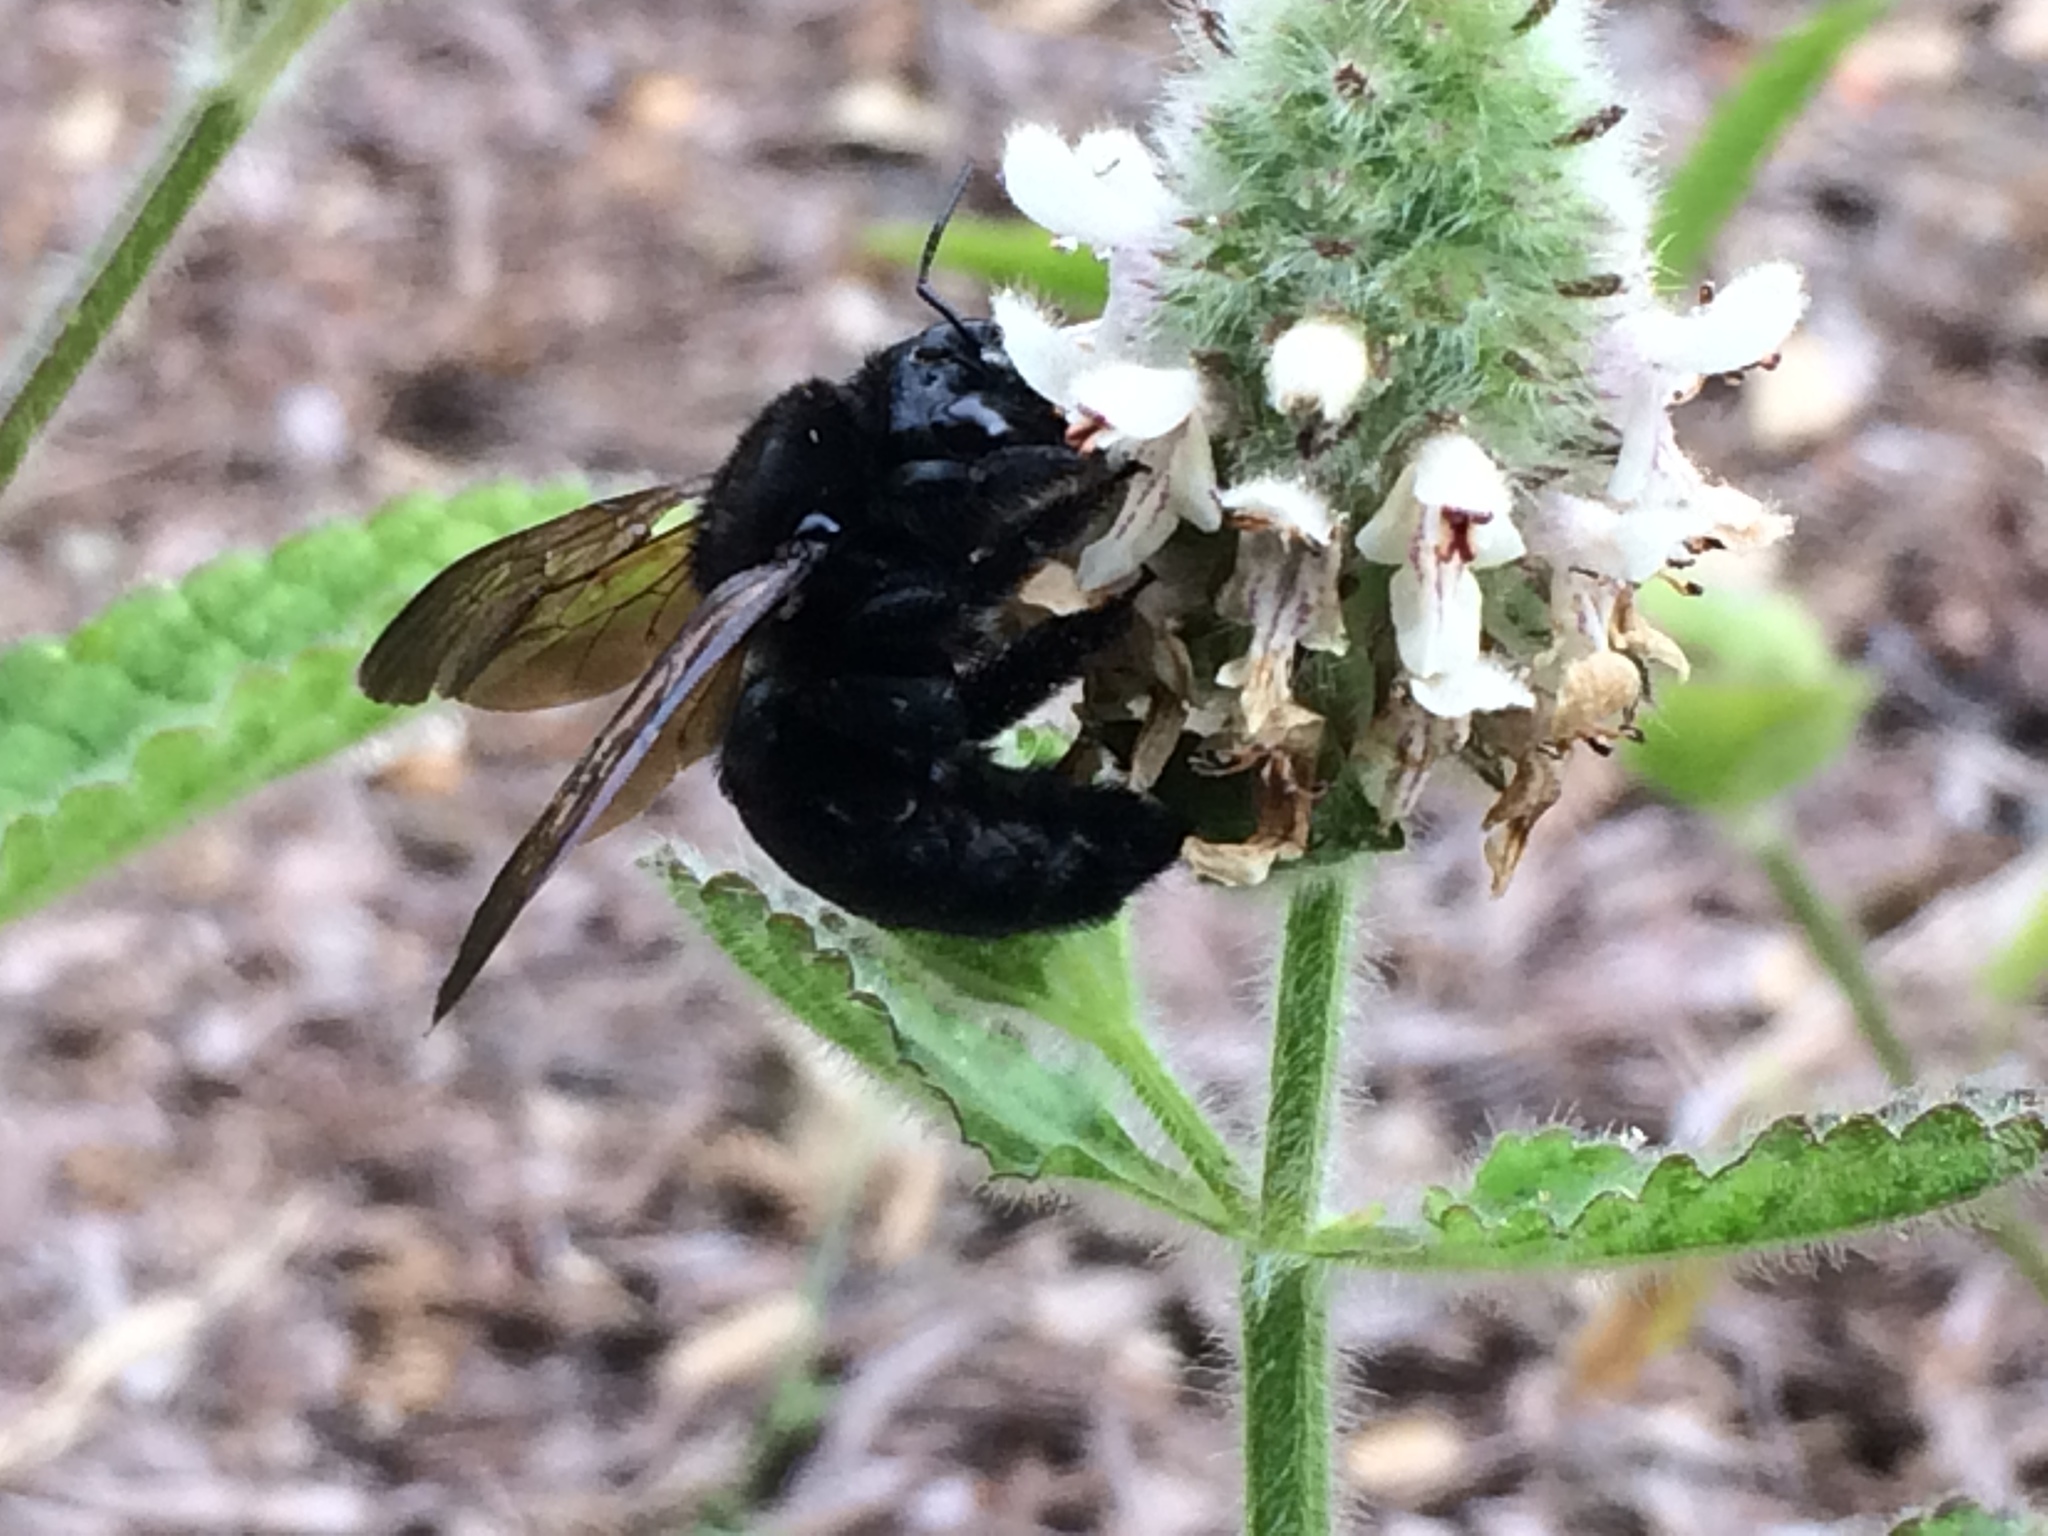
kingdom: Animalia
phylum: Arthropoda
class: Insecta
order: Hymenoptera
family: Apidae
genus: Xylocopa
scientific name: Xylocopa sonorina
